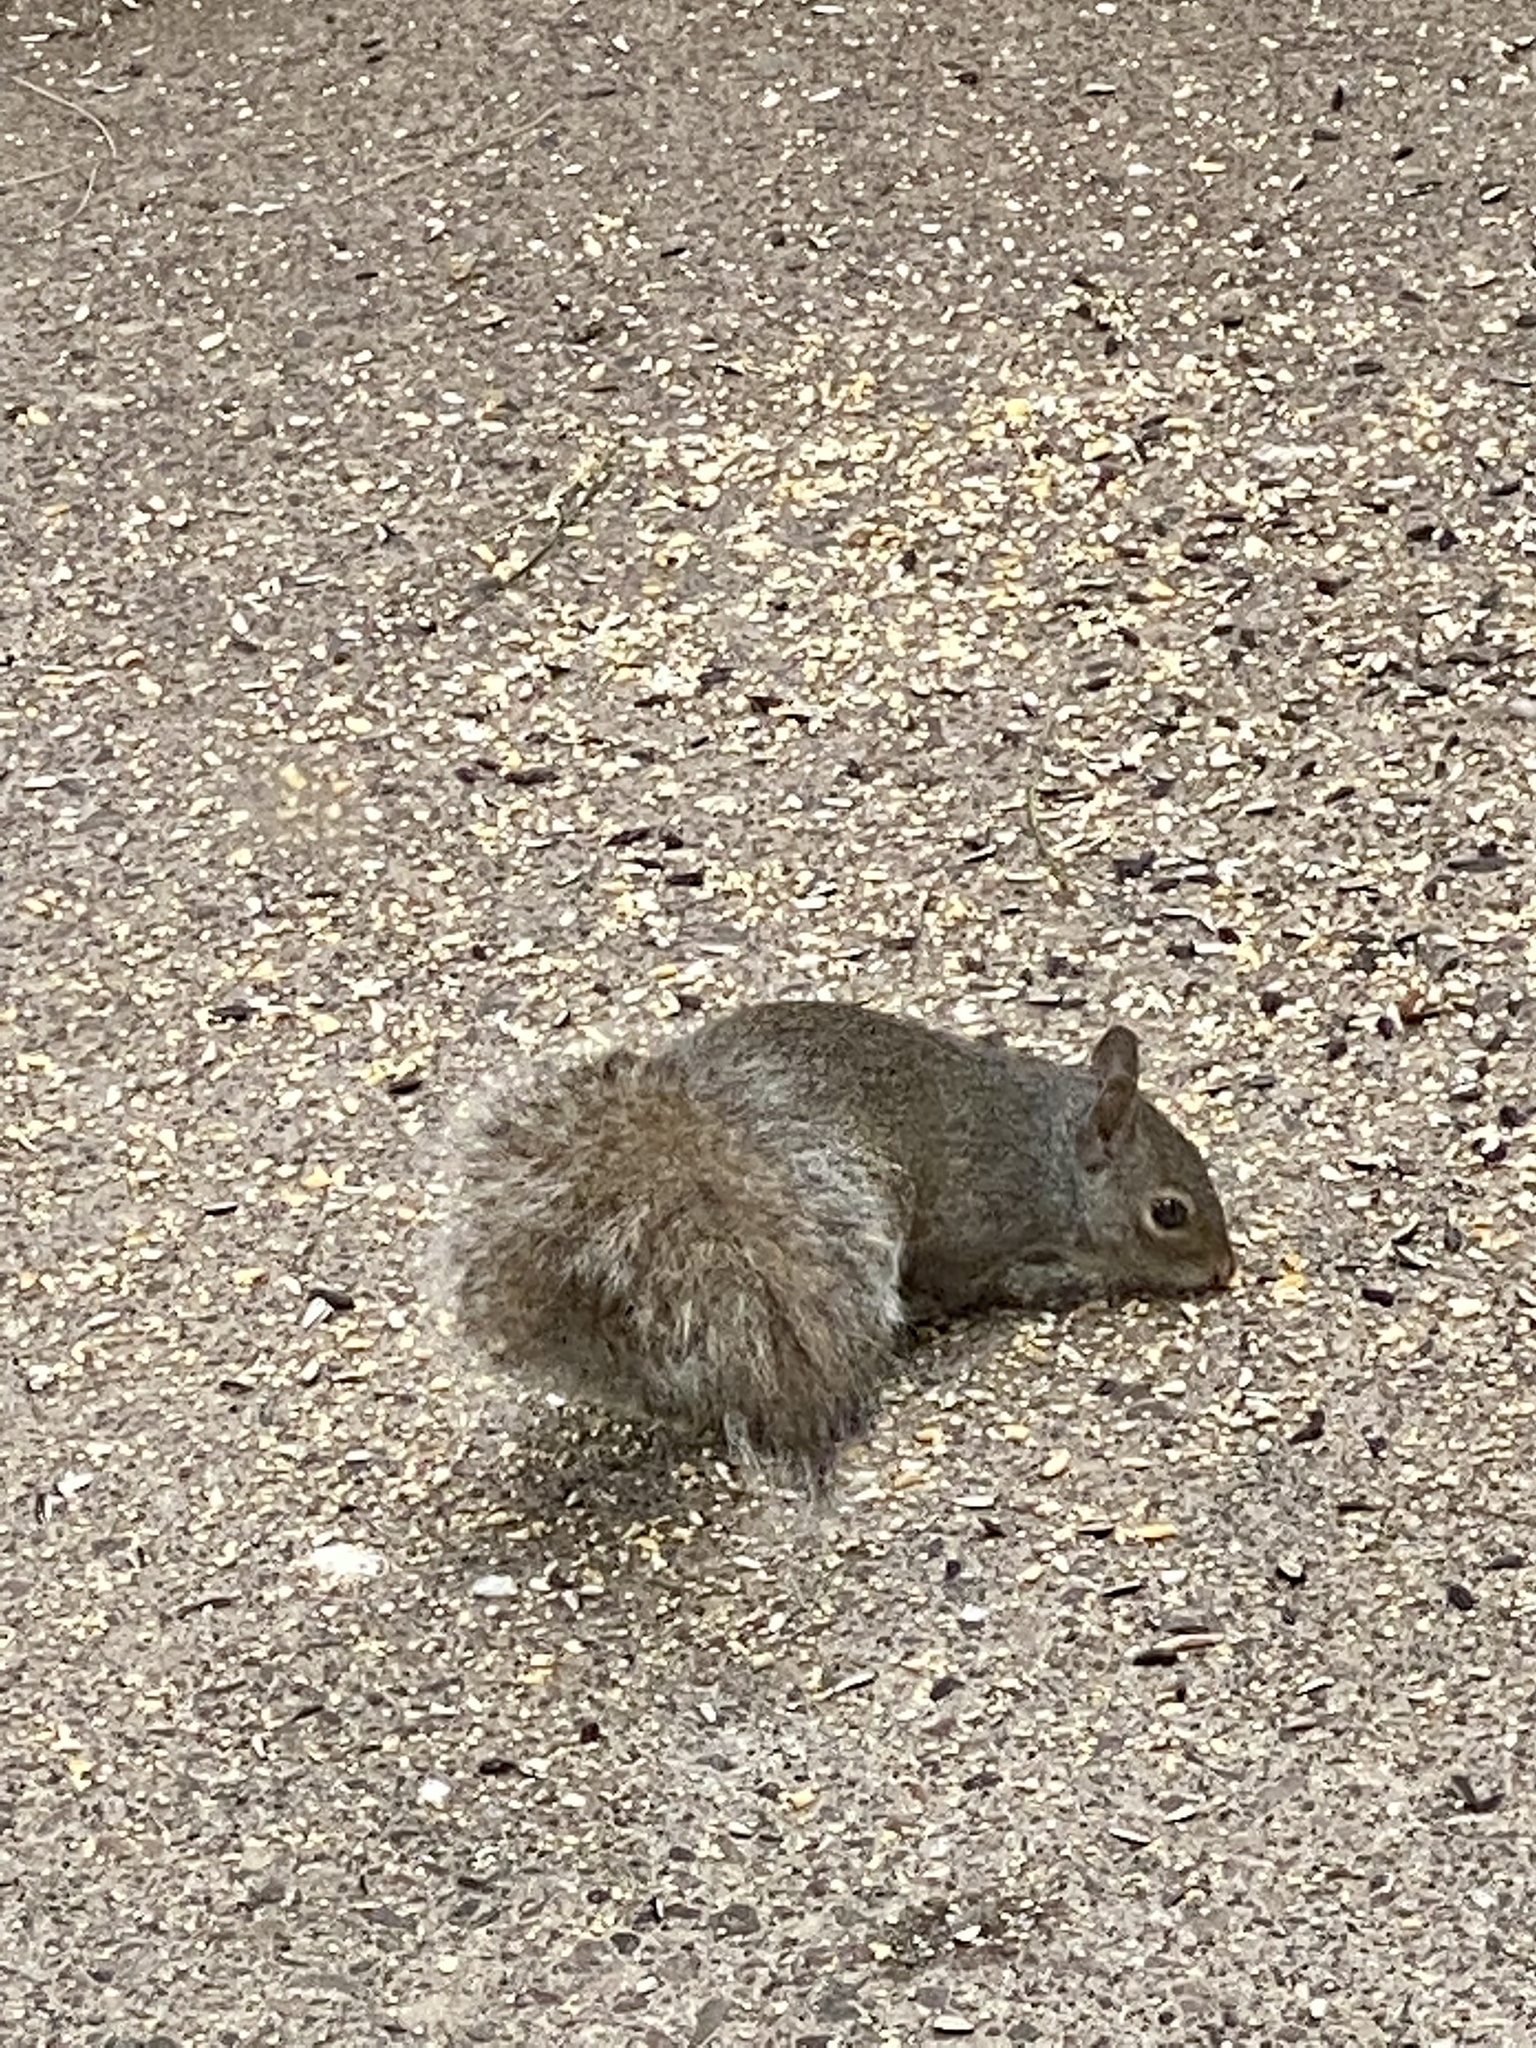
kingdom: Animalia
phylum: Chordata
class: Mammalia
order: Rodentia
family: Sciuridae
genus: Sciurus
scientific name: Sciurus carolinensis
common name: Eastern gray squirrel
